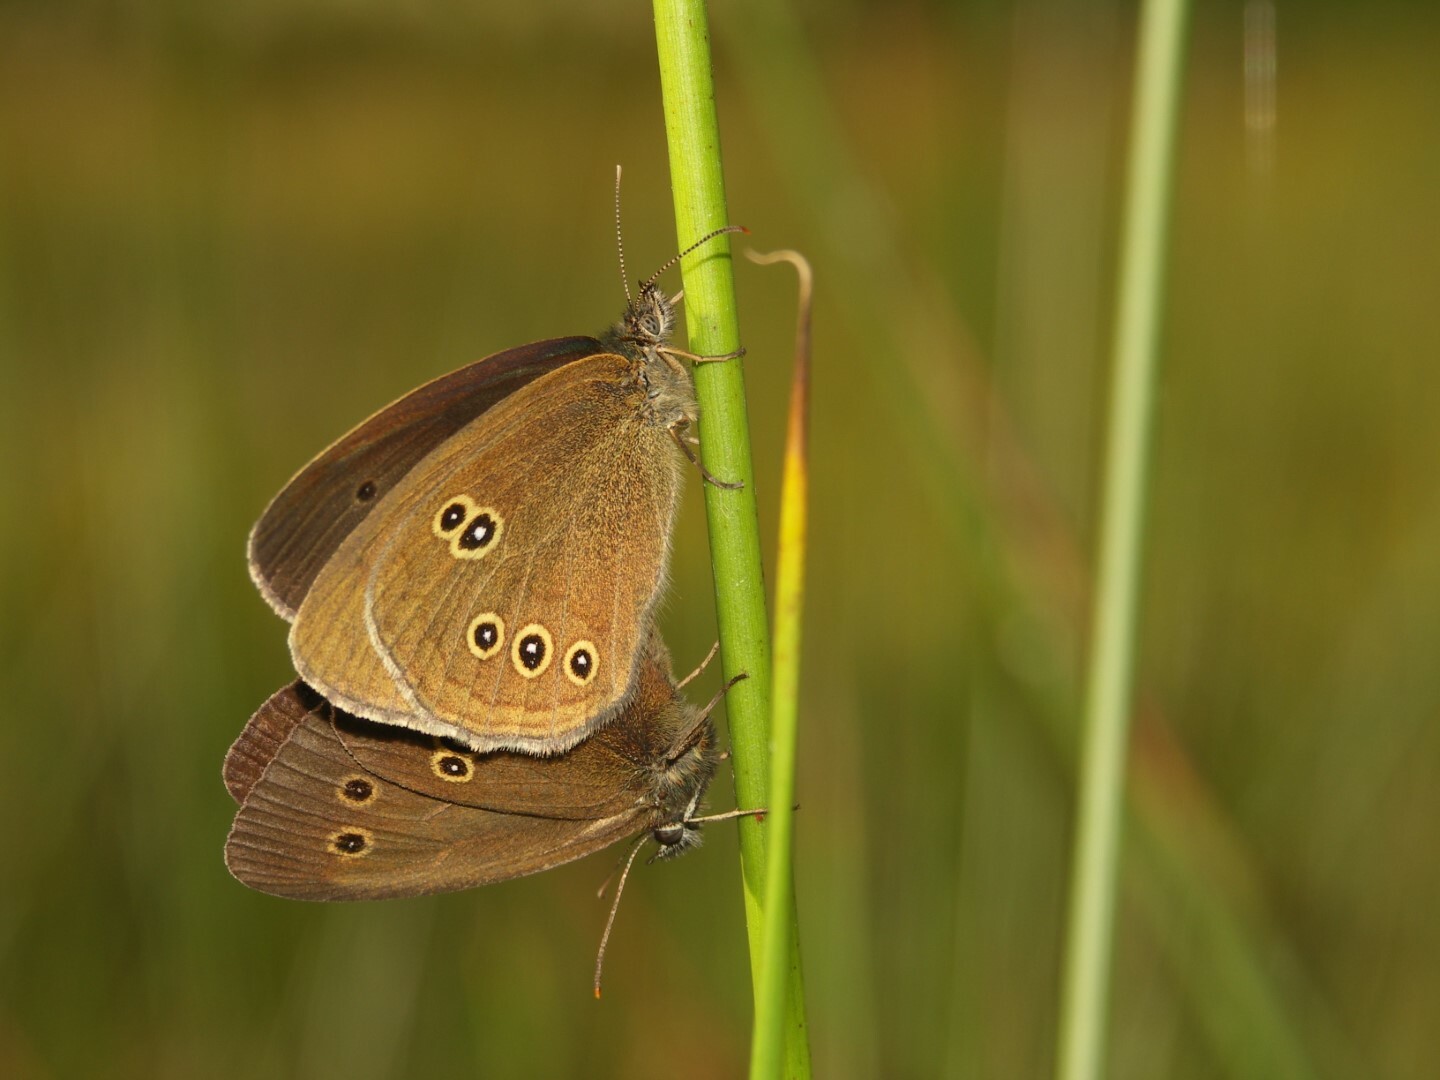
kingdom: Animalia
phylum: Arthropoda
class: Insecta
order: Lepidoptera
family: Nymphalidae
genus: Aphantopus
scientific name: Aphantopus hyperantus
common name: Ringlet
